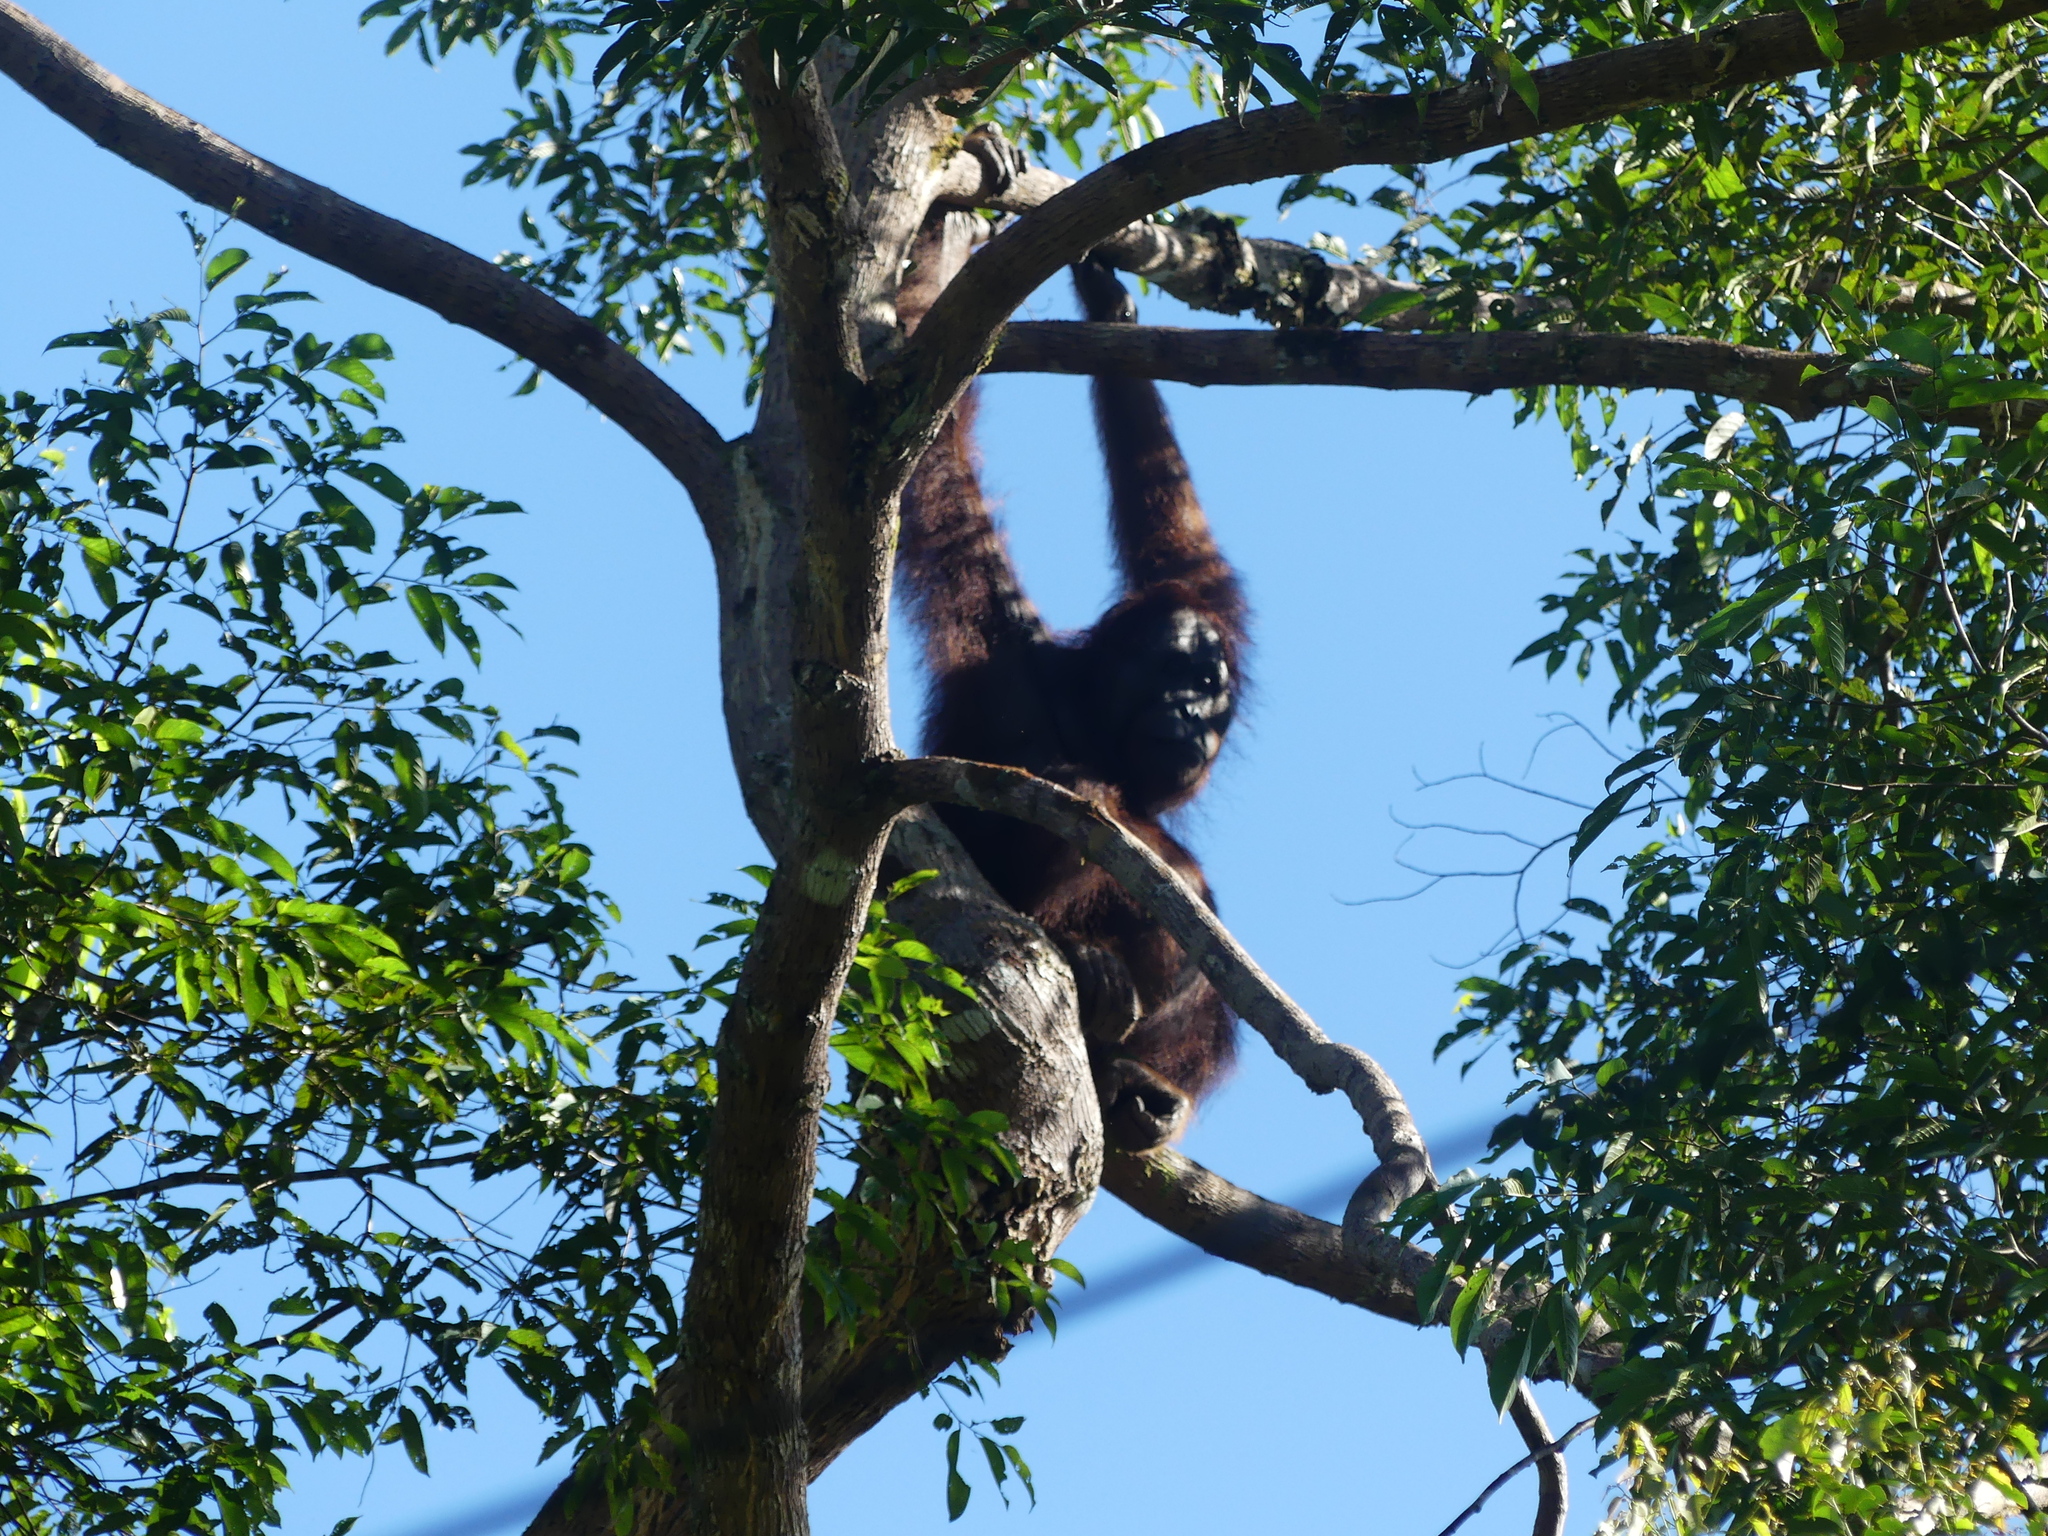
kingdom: Animalia
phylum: Chordata
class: Mammalia
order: Primates
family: Hominidae
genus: Pongo
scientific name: Pongo pygmaeus
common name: Bornean orangutan
